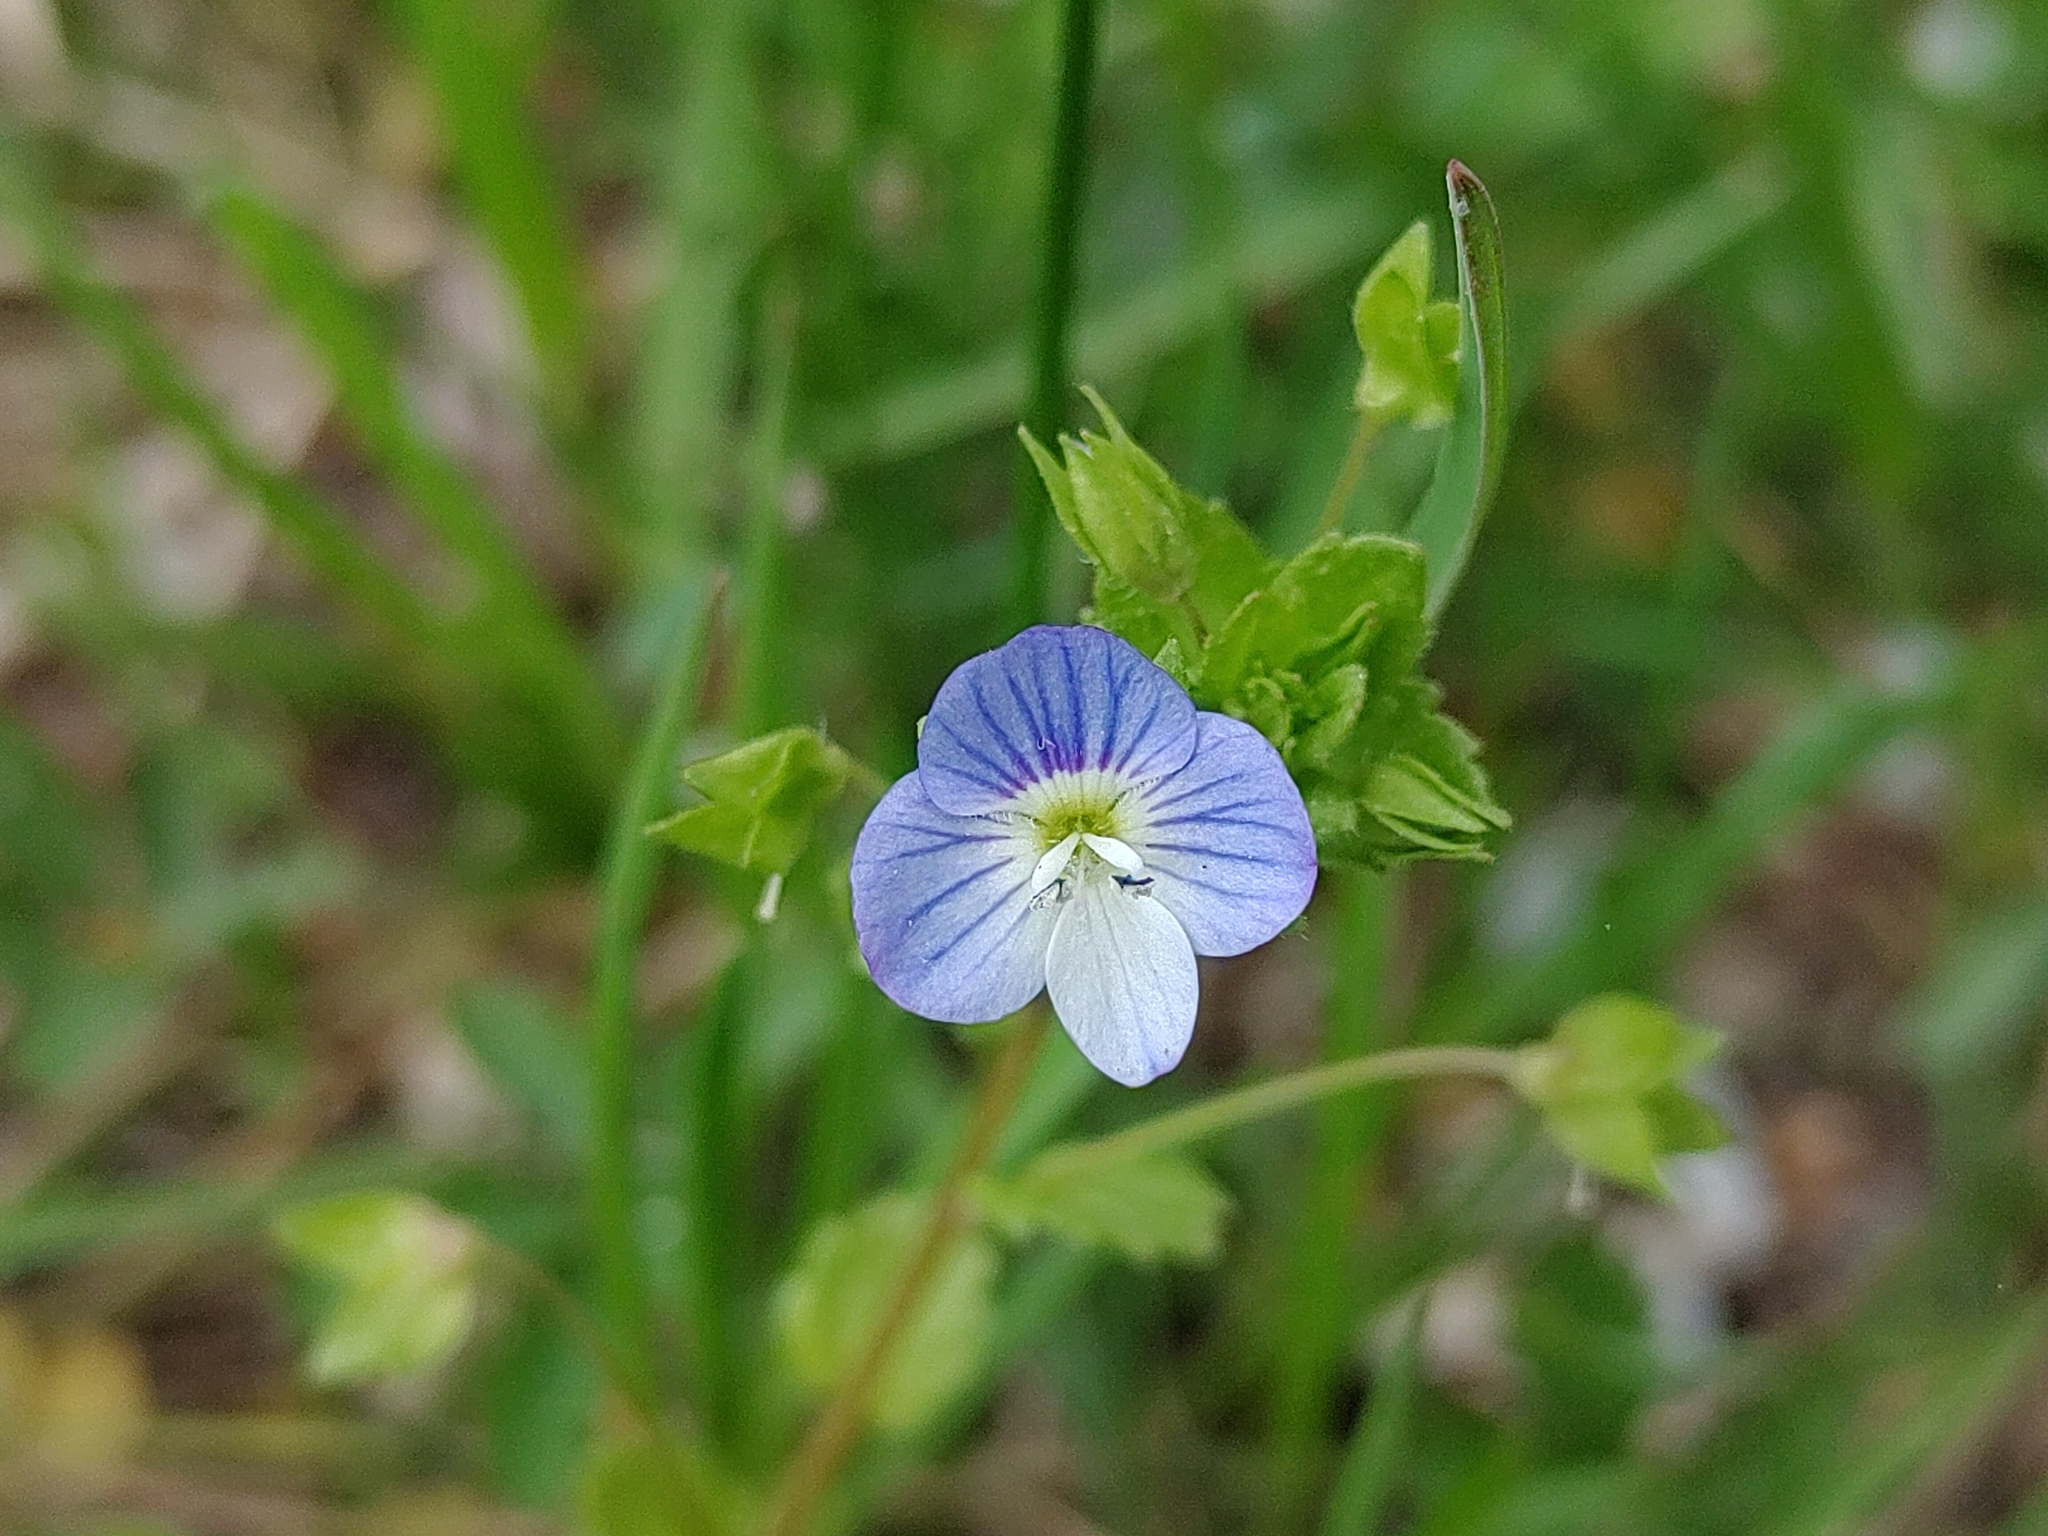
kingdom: Plantae
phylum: Tracheophyta
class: Magnoliopsida
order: Lamiales
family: Plantaginaceae
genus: Veronica
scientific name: Veronica persica
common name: Common field-speedwell
